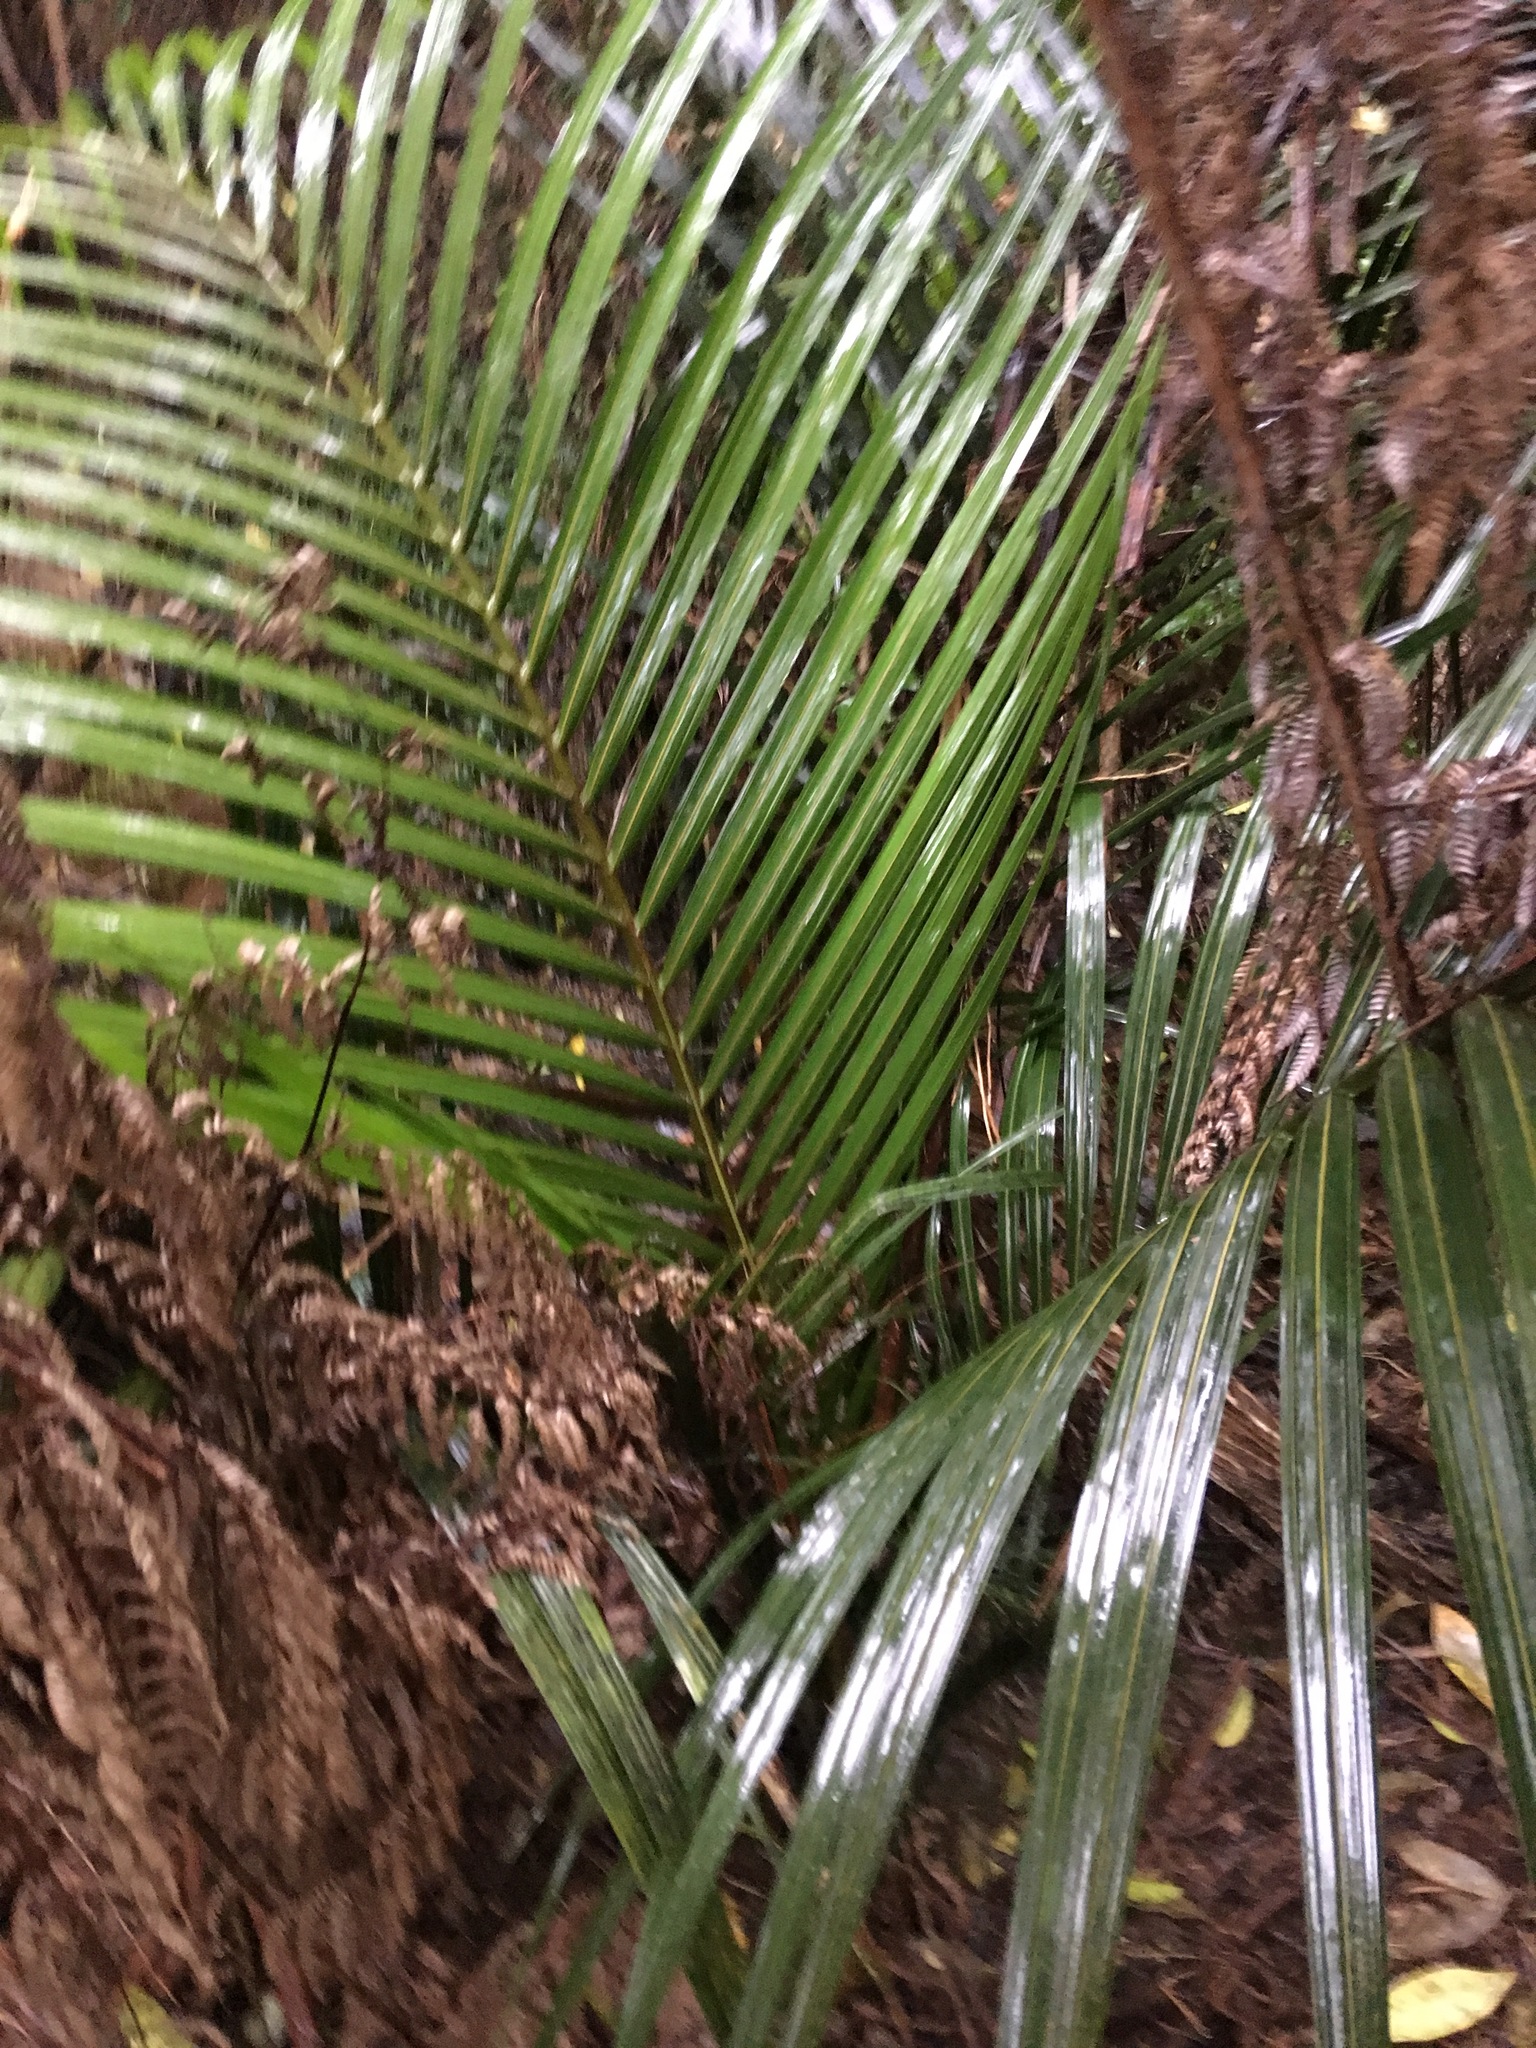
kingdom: Plantae
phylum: Tracheophyta
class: Liliopsida
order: Arecales
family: Arecaceae
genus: Rhopalostylis
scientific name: Rhopalostylis sapida
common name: Feather-duster palm
